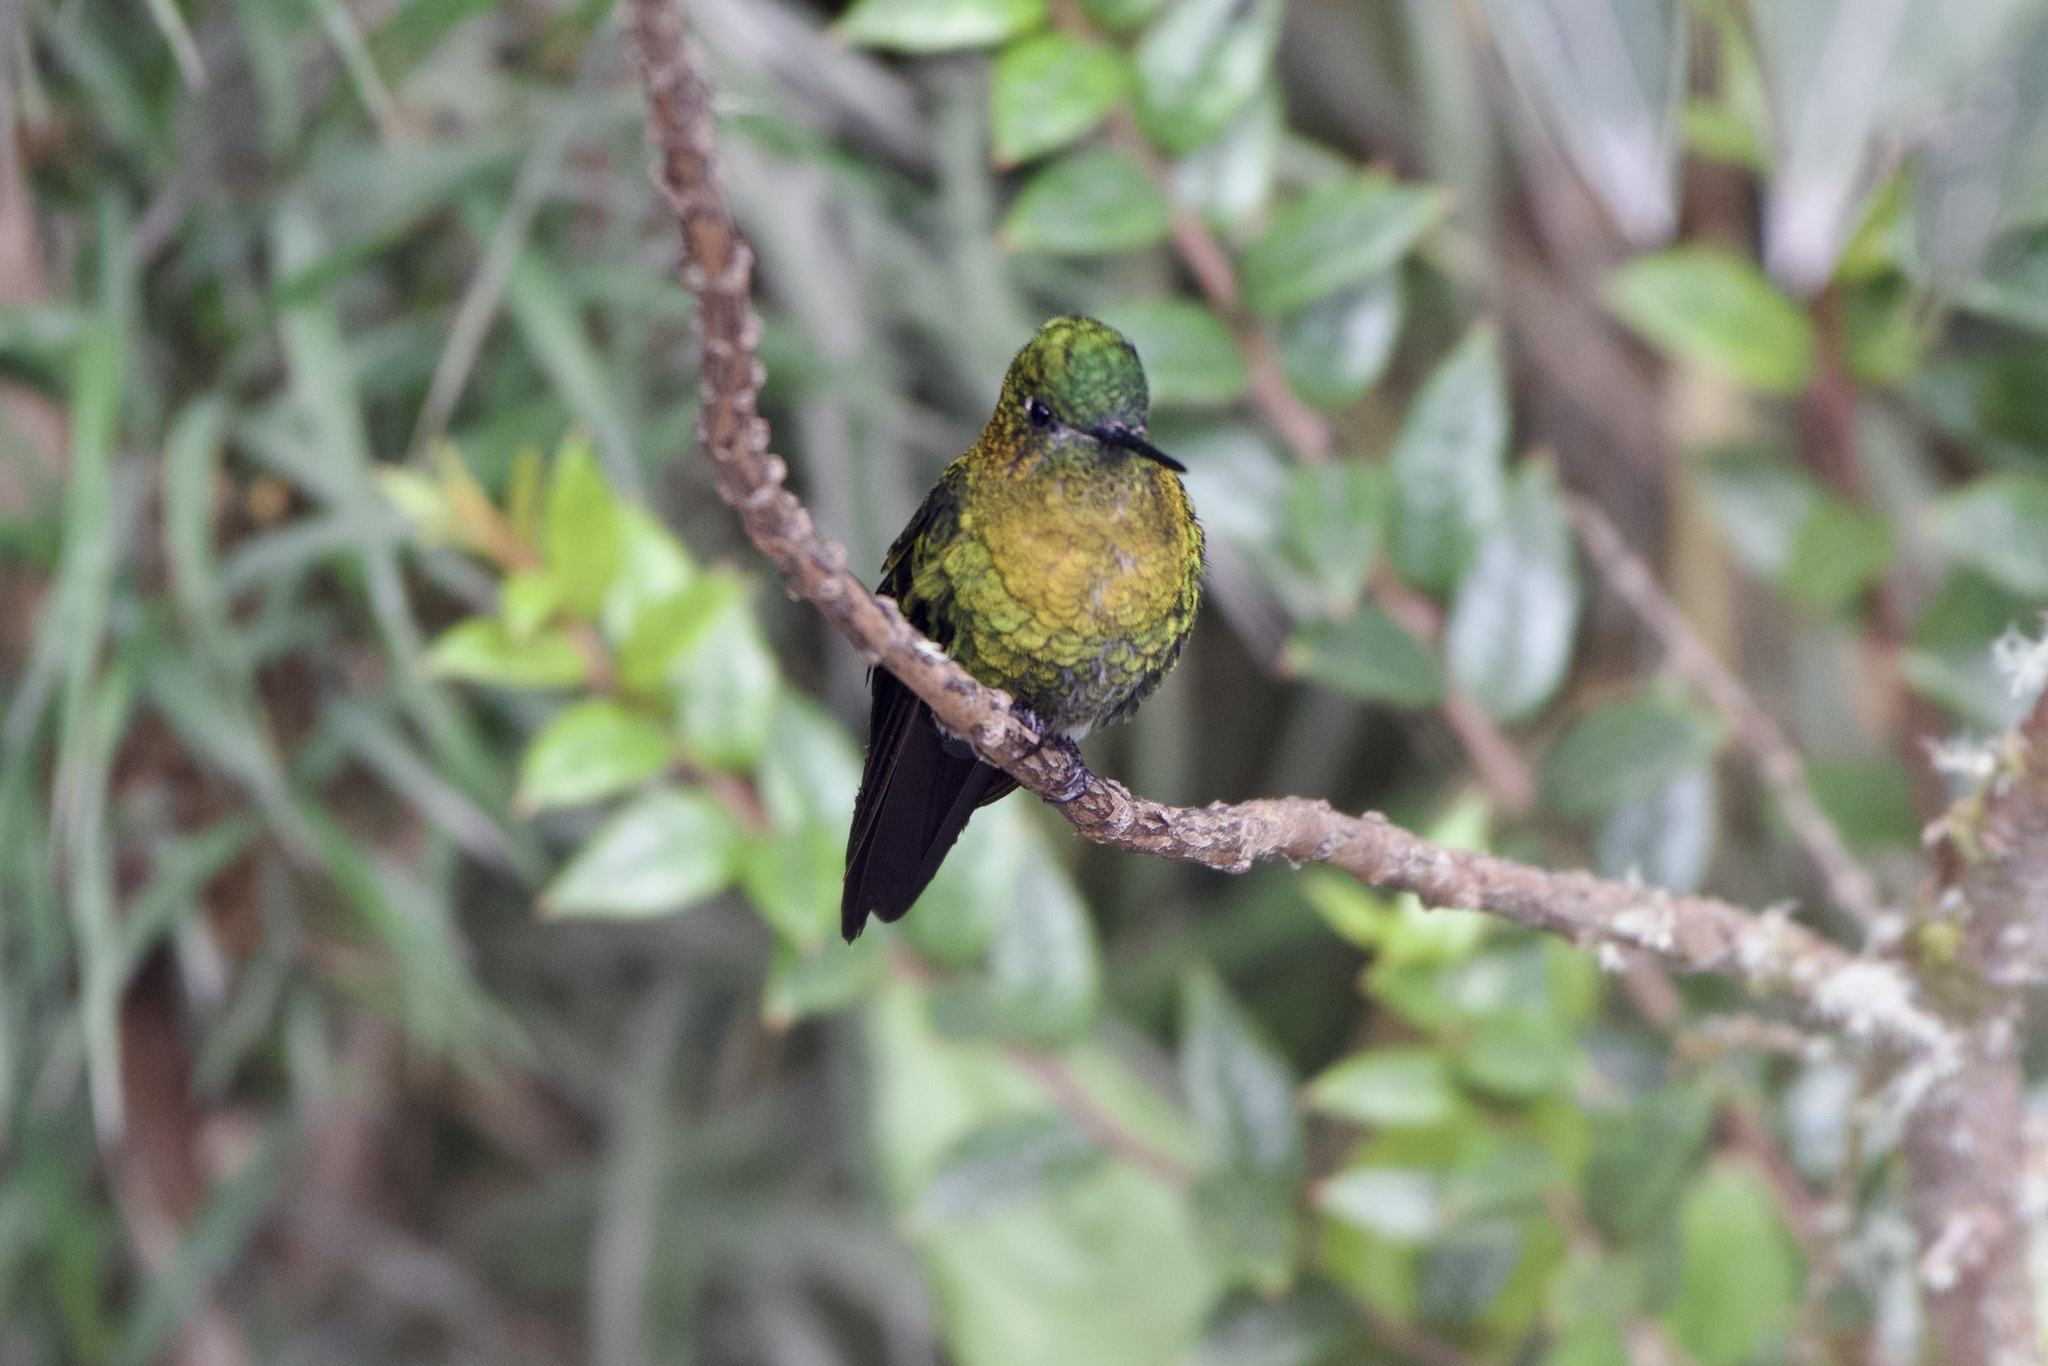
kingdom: Animalia
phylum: Chordata
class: Aves
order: Apodiformes
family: Trochilidae
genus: Eriocnemis
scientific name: Eriocnemis mosquera
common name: Golden-breasted puffleg
